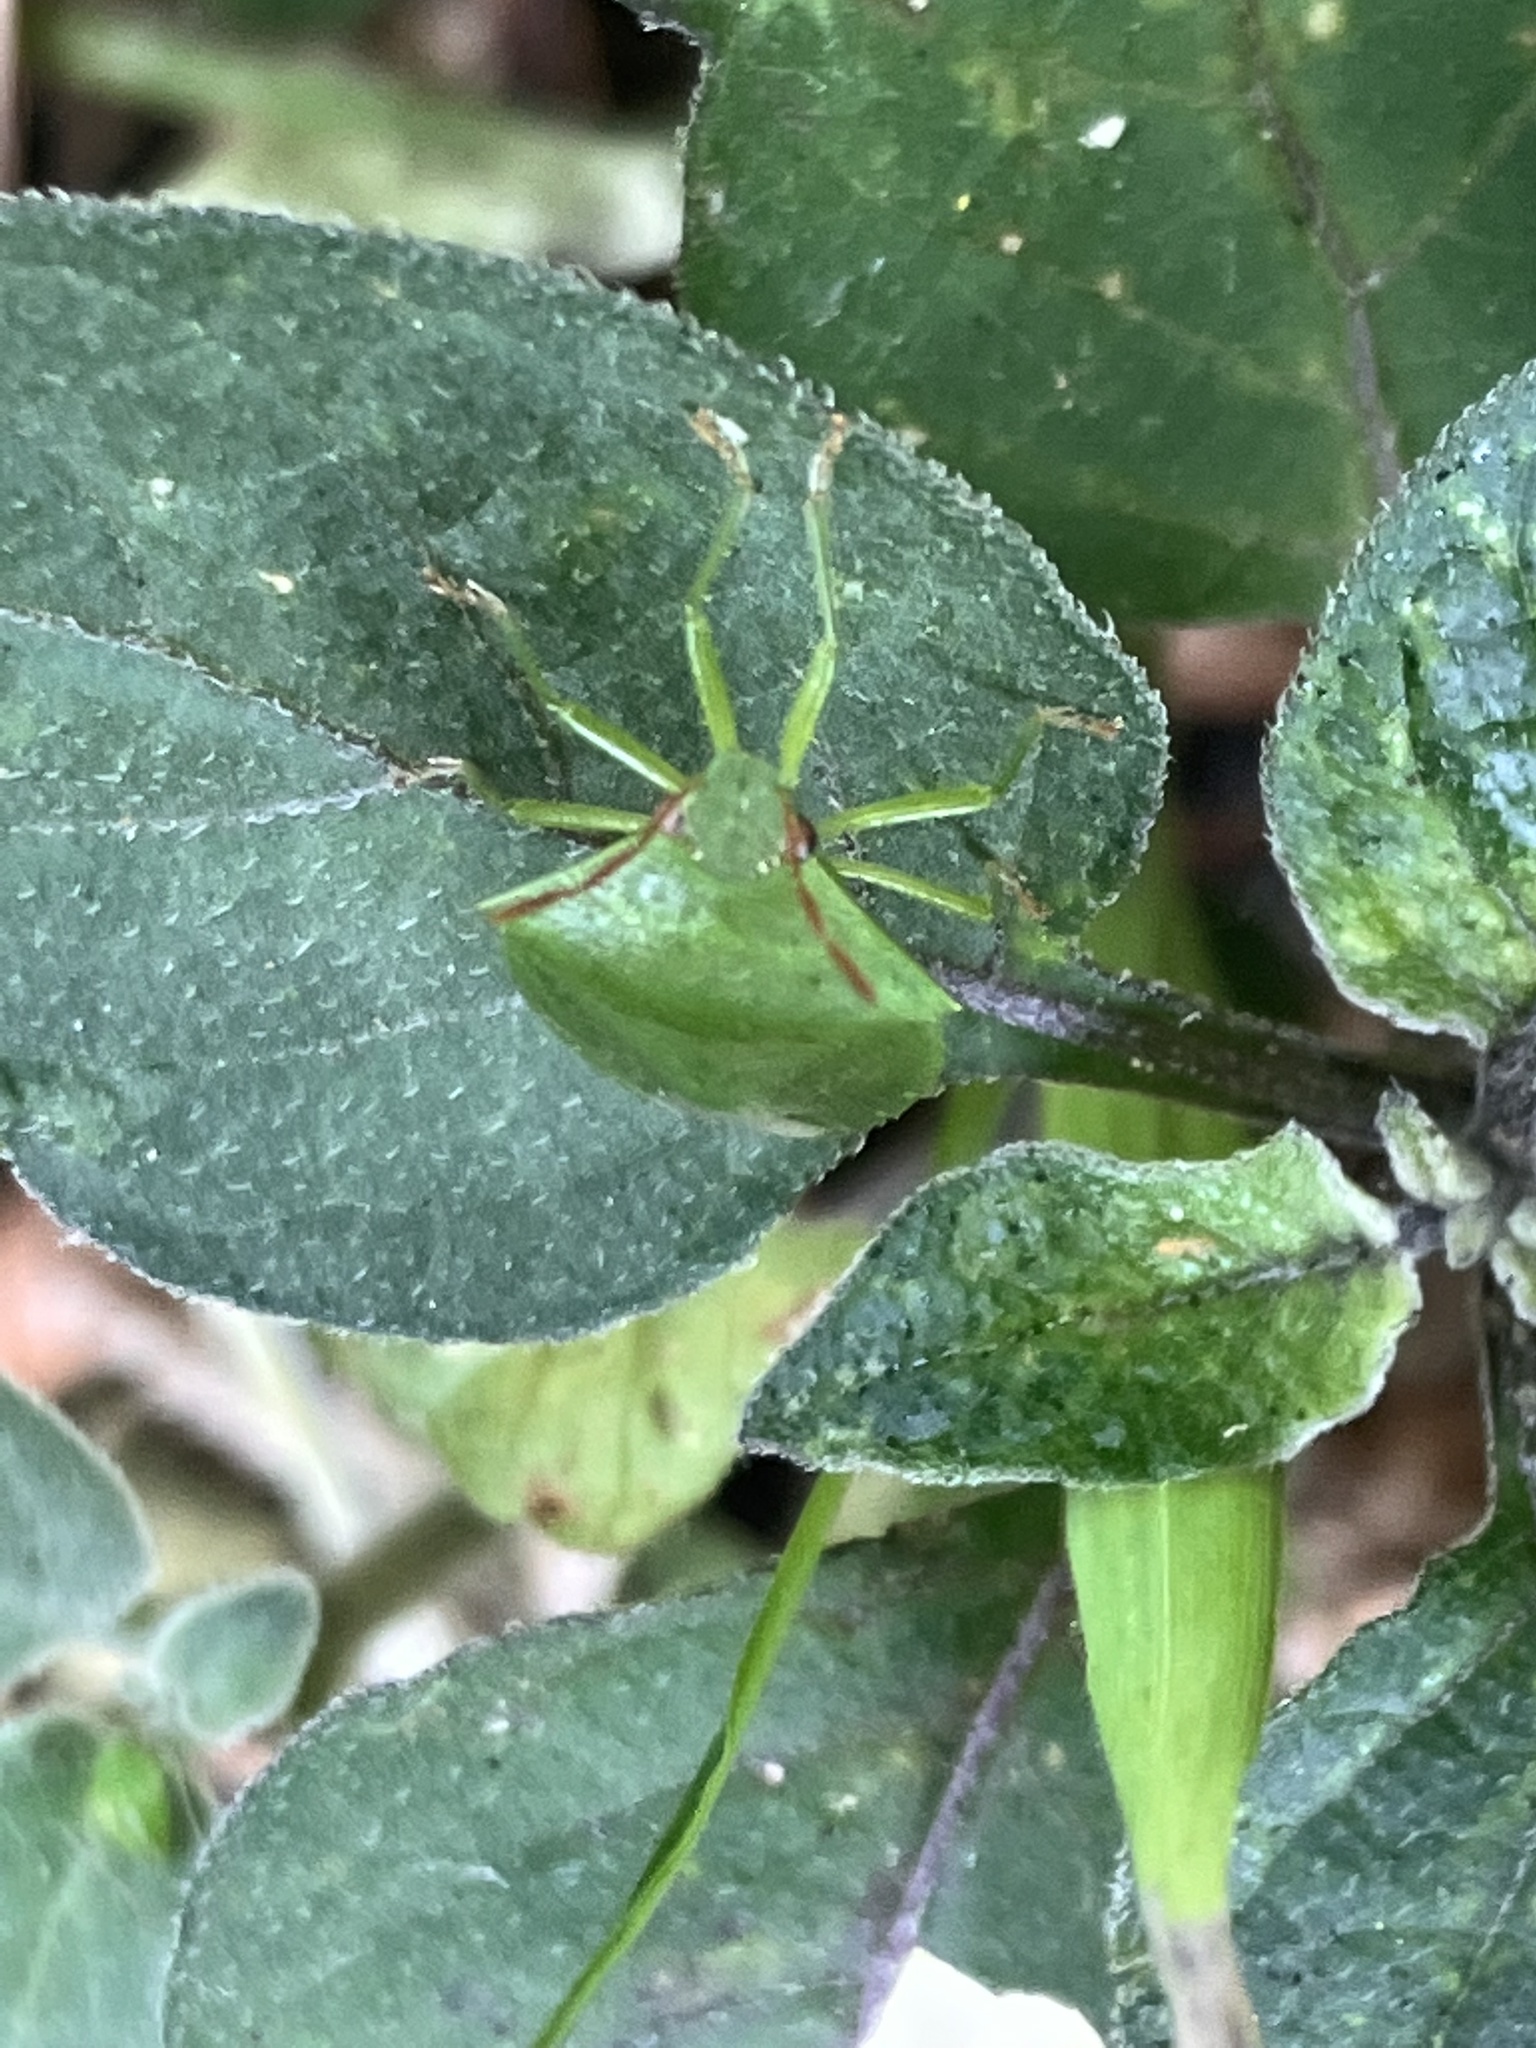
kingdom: Animalia
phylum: Arthropoda
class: Insecta
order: Hemiptera
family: Pentatomidae
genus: Cuspicona
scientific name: Cuspicona simplex
